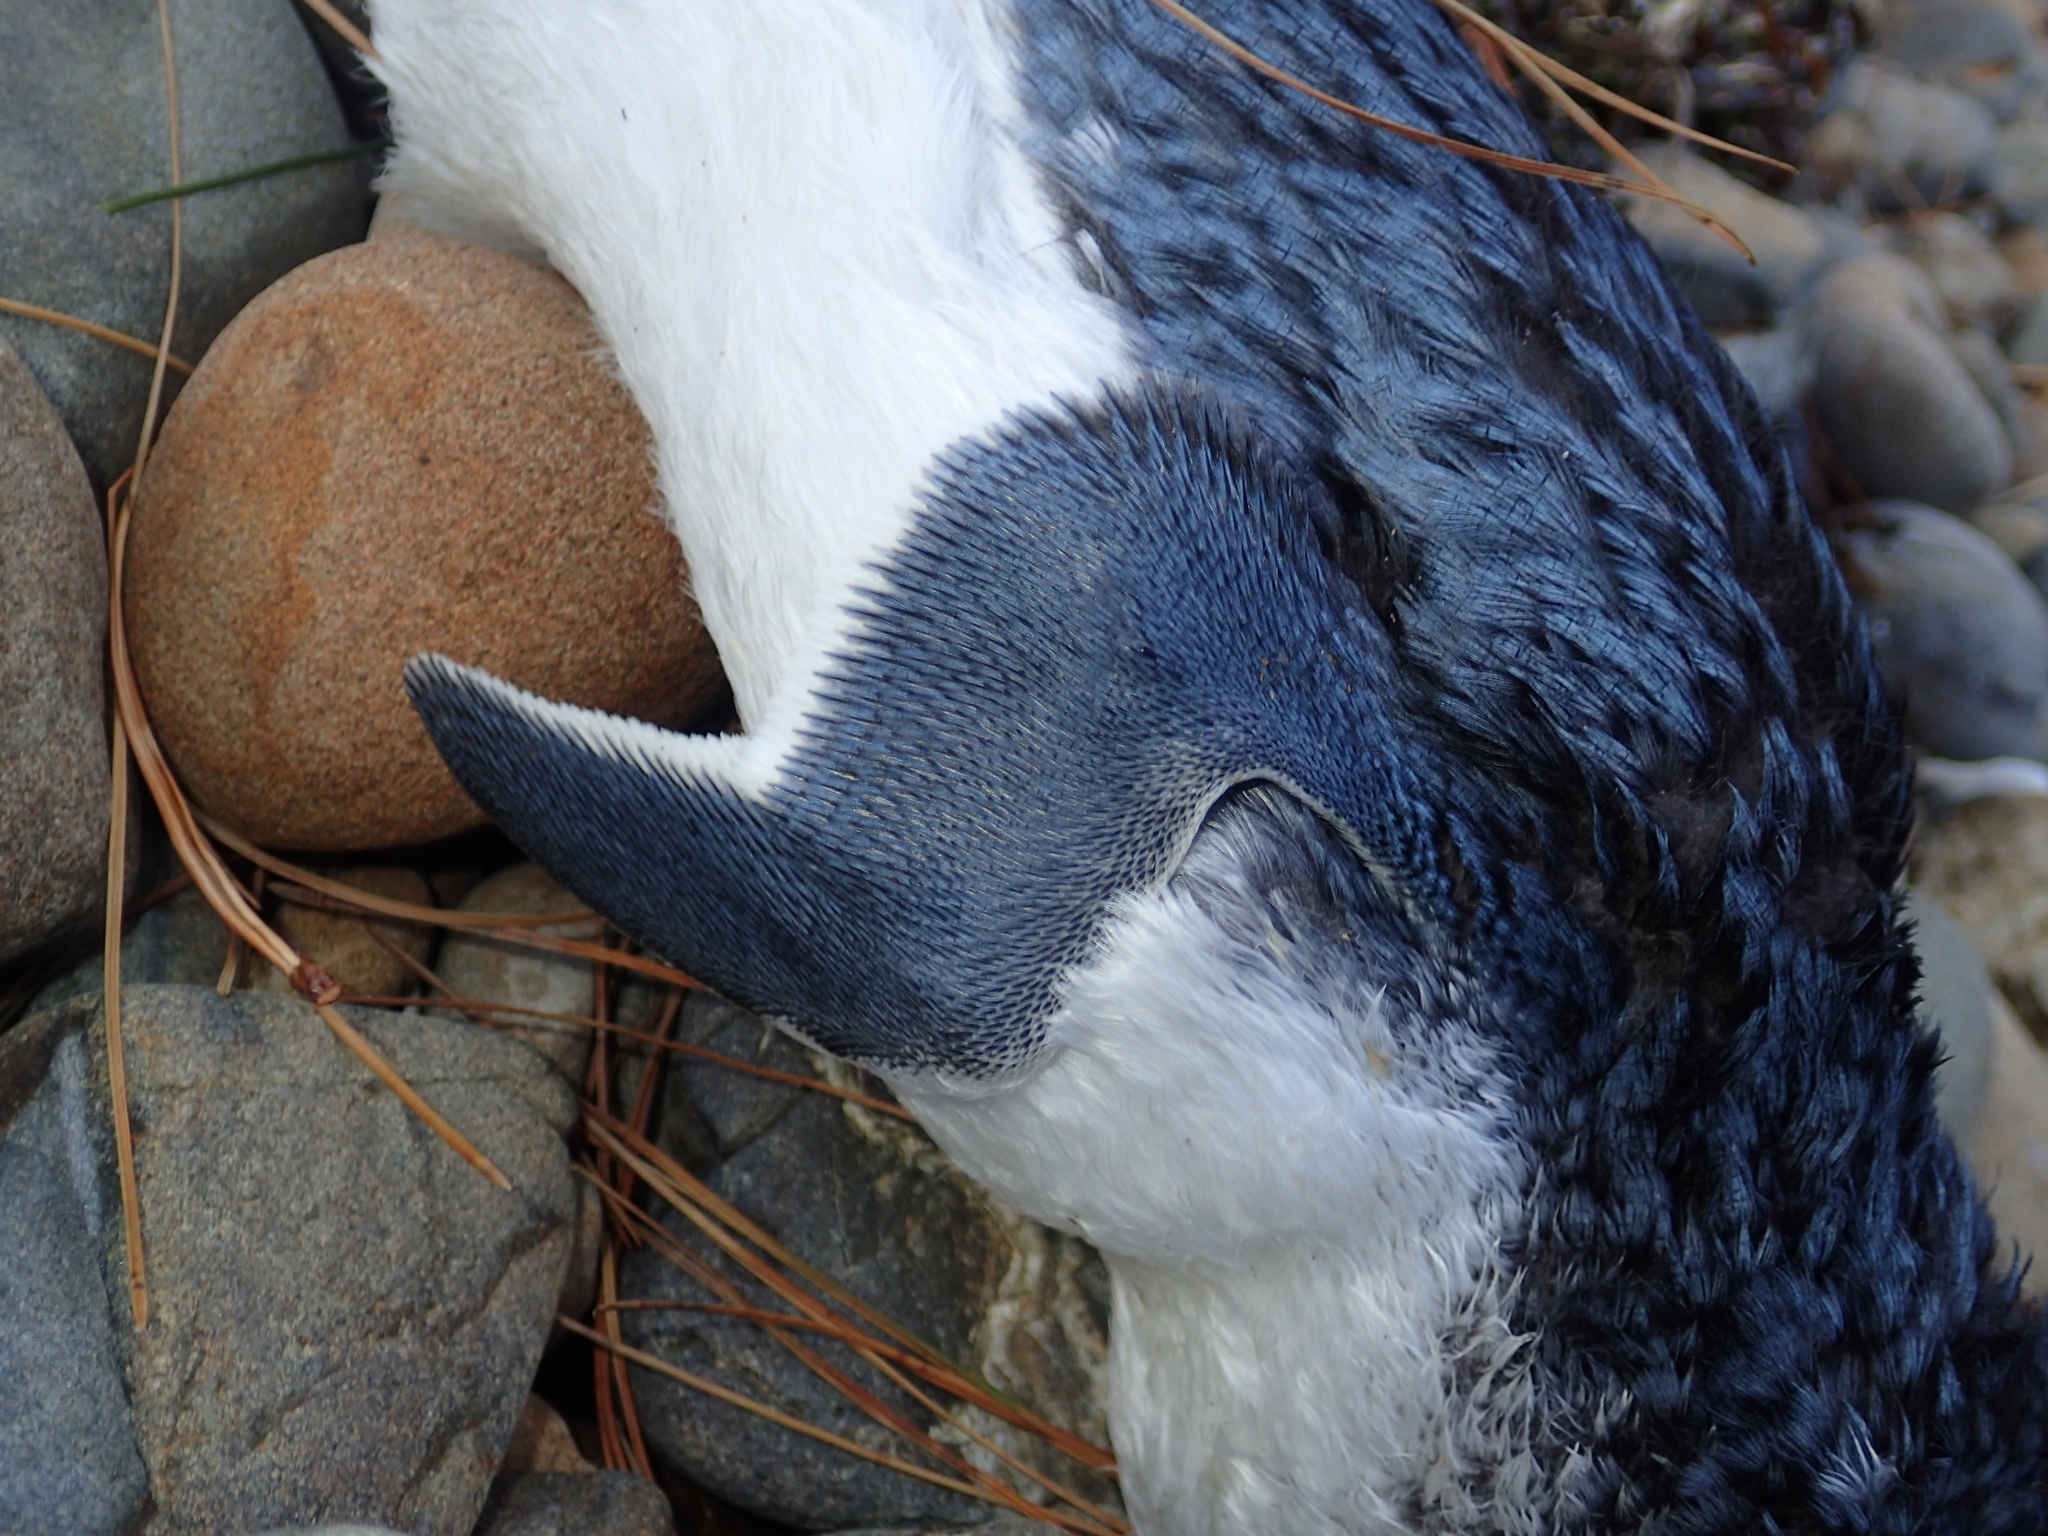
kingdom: Animalia
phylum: Chordata
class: Aves
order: Sphenisciformes
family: Spheniscidae
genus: Eudyptula
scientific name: Eudyptula minor
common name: Little penguin
